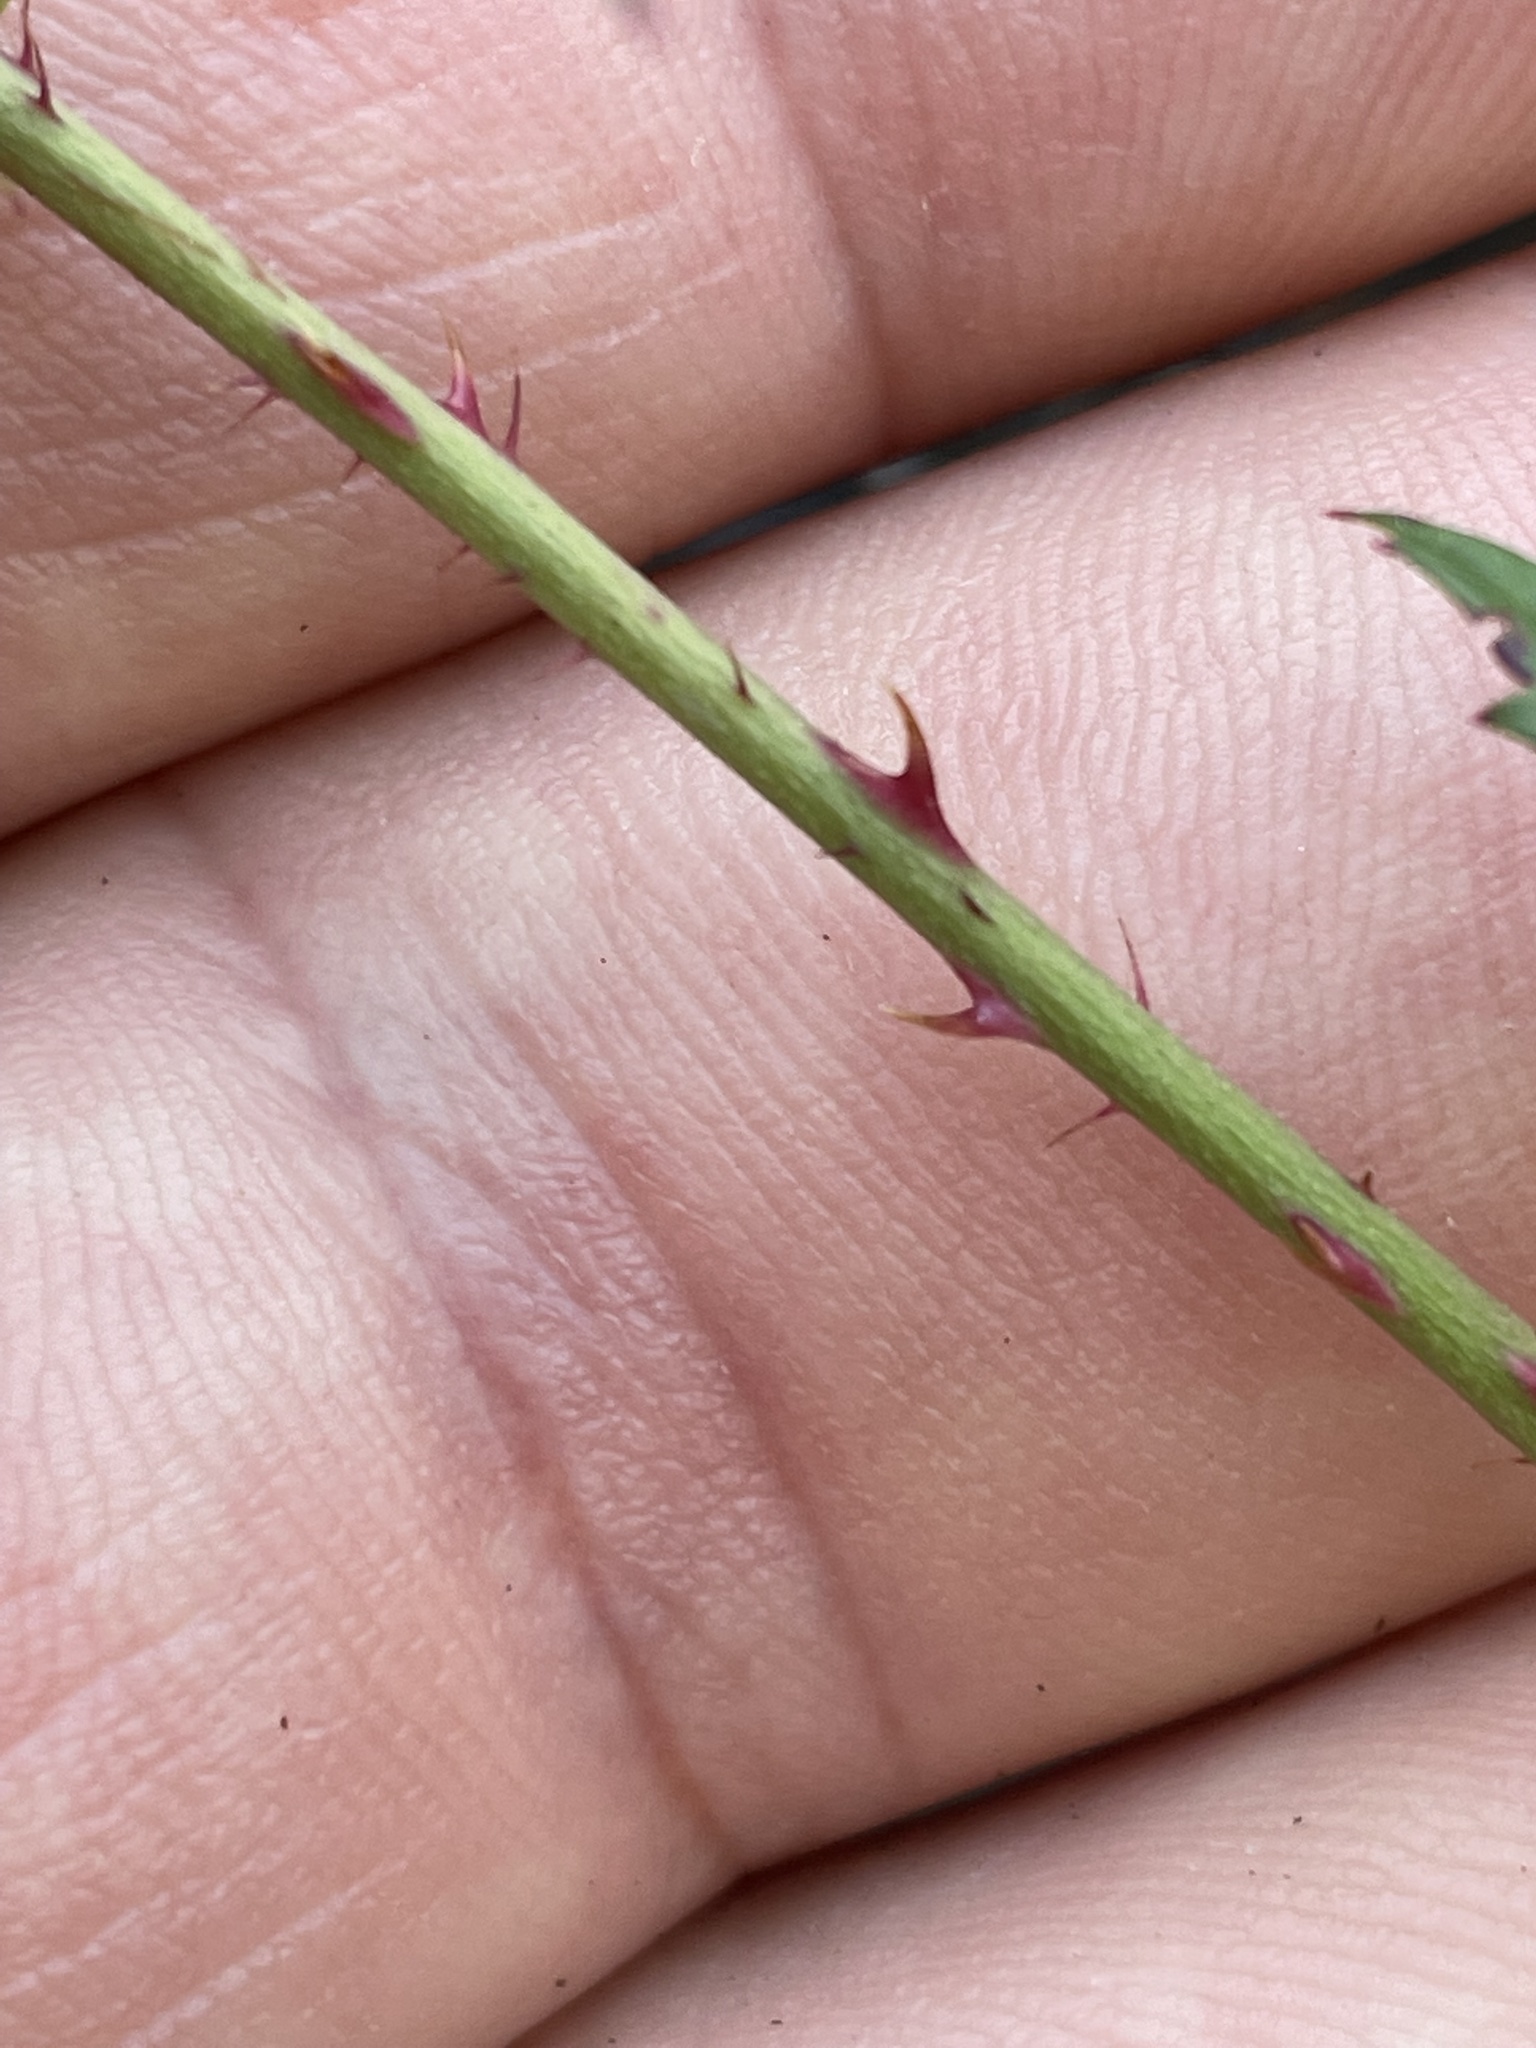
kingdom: Plantae
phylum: Tracheophyta
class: Magnoliopsida
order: Rosales
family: Rosaceae
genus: Rubus
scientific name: Rubus trivialis
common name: Southern dewberry
